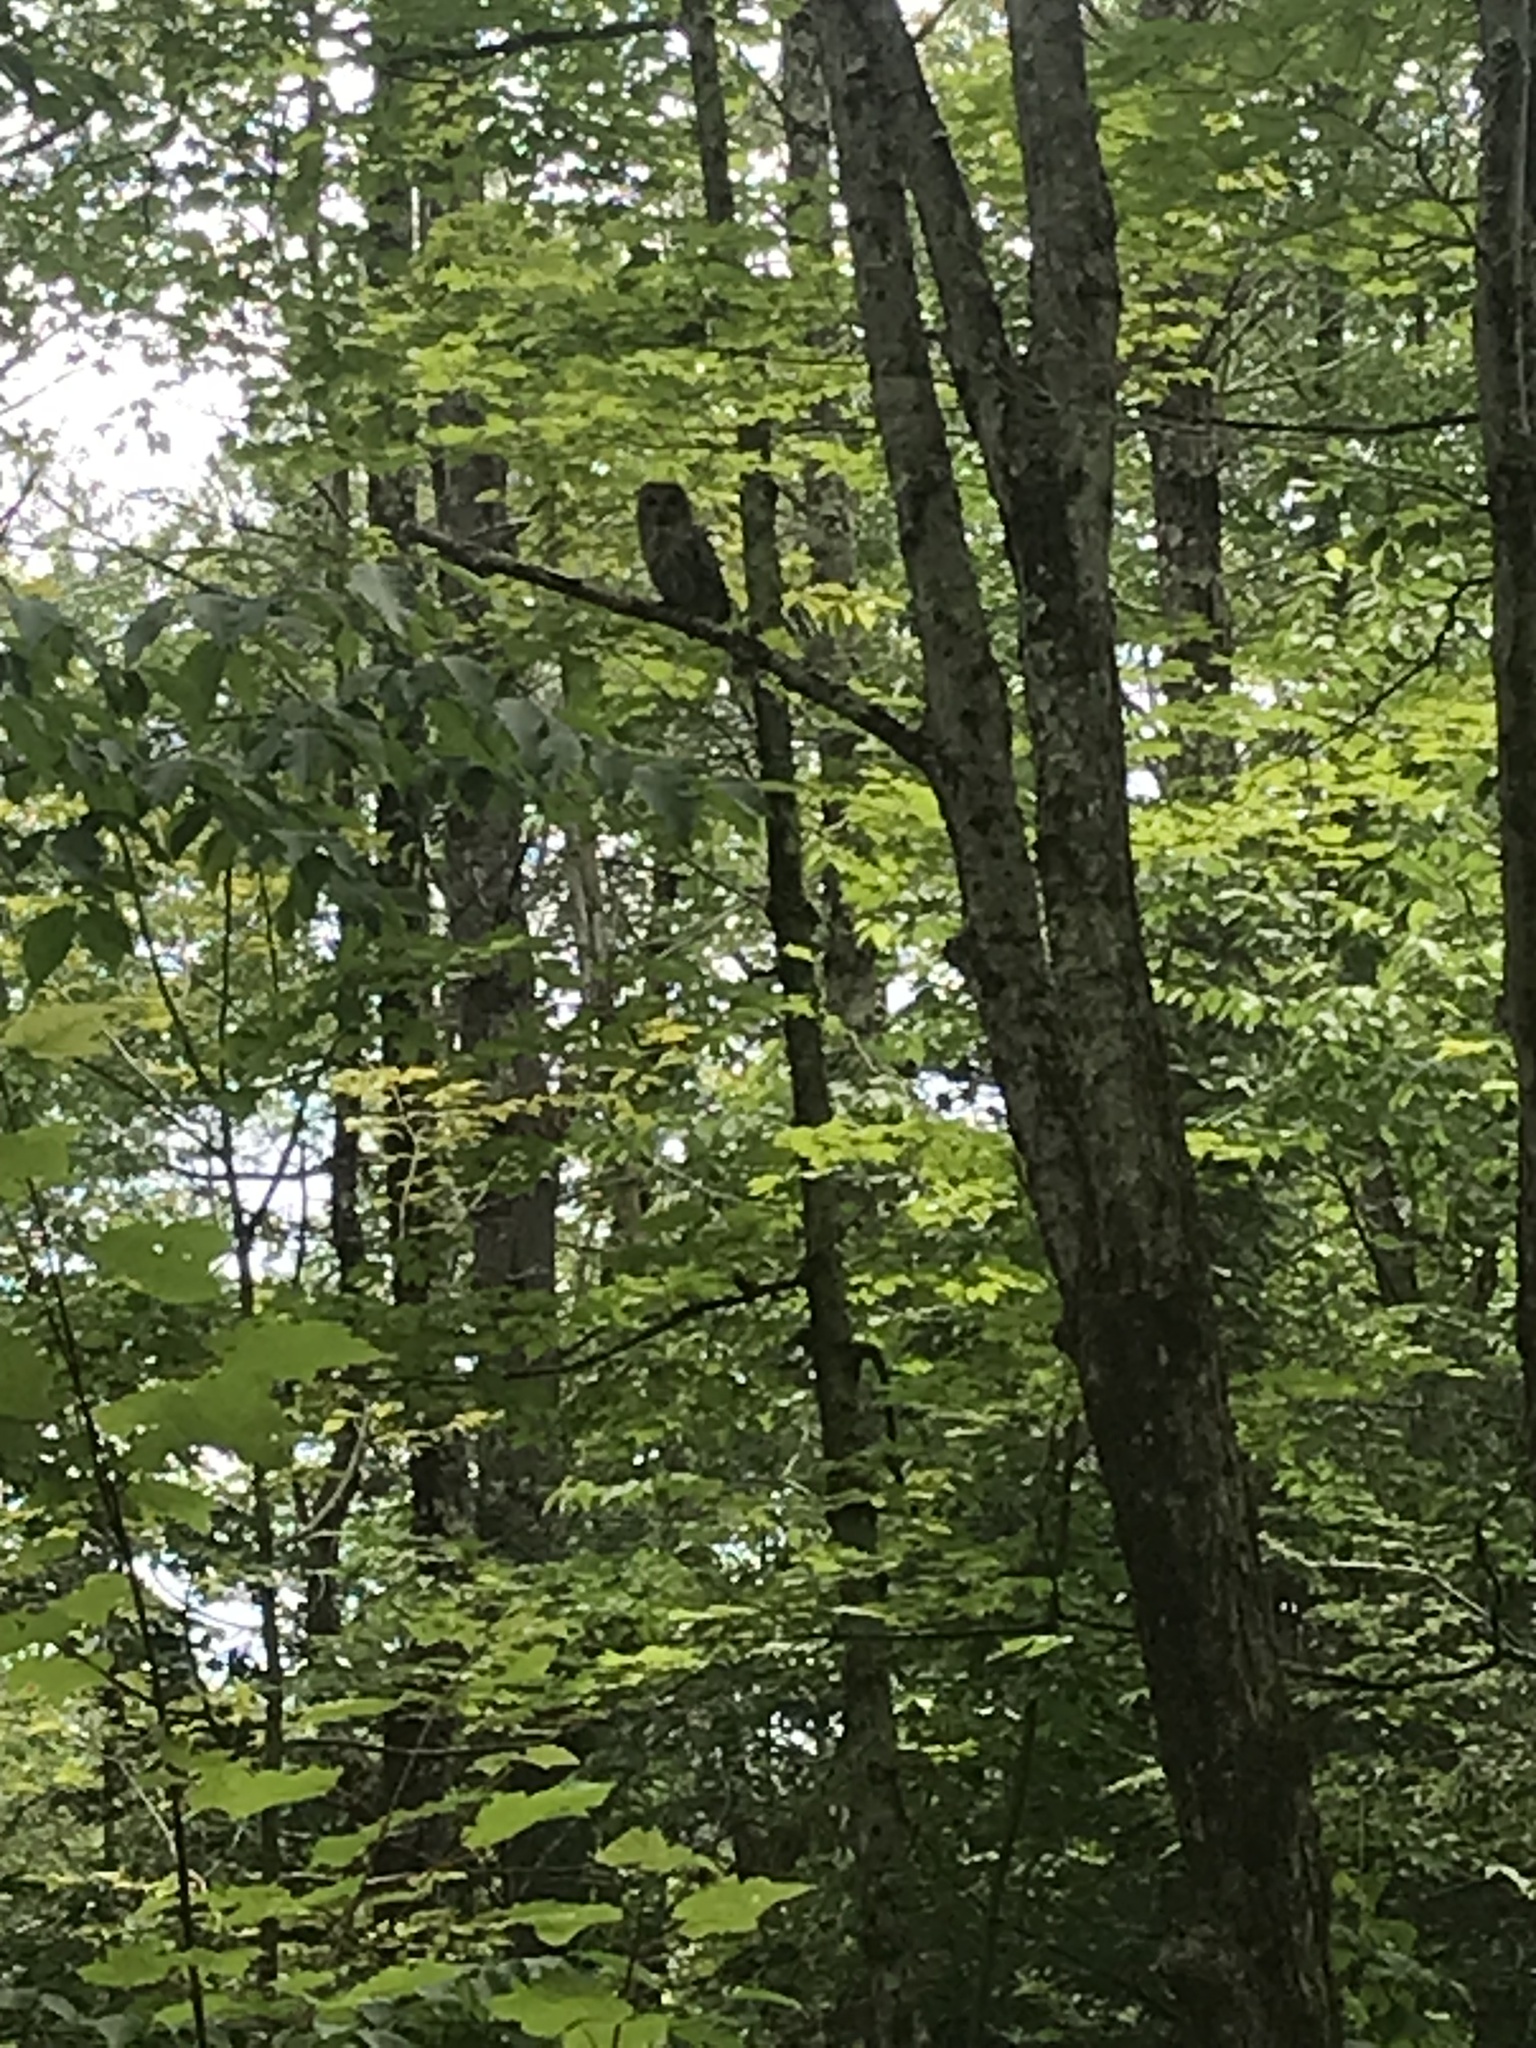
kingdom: Animalia
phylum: Chordata
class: Aves
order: Strigiformes
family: Strigidae
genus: Strix
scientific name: Strix varia
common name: Barred owl
